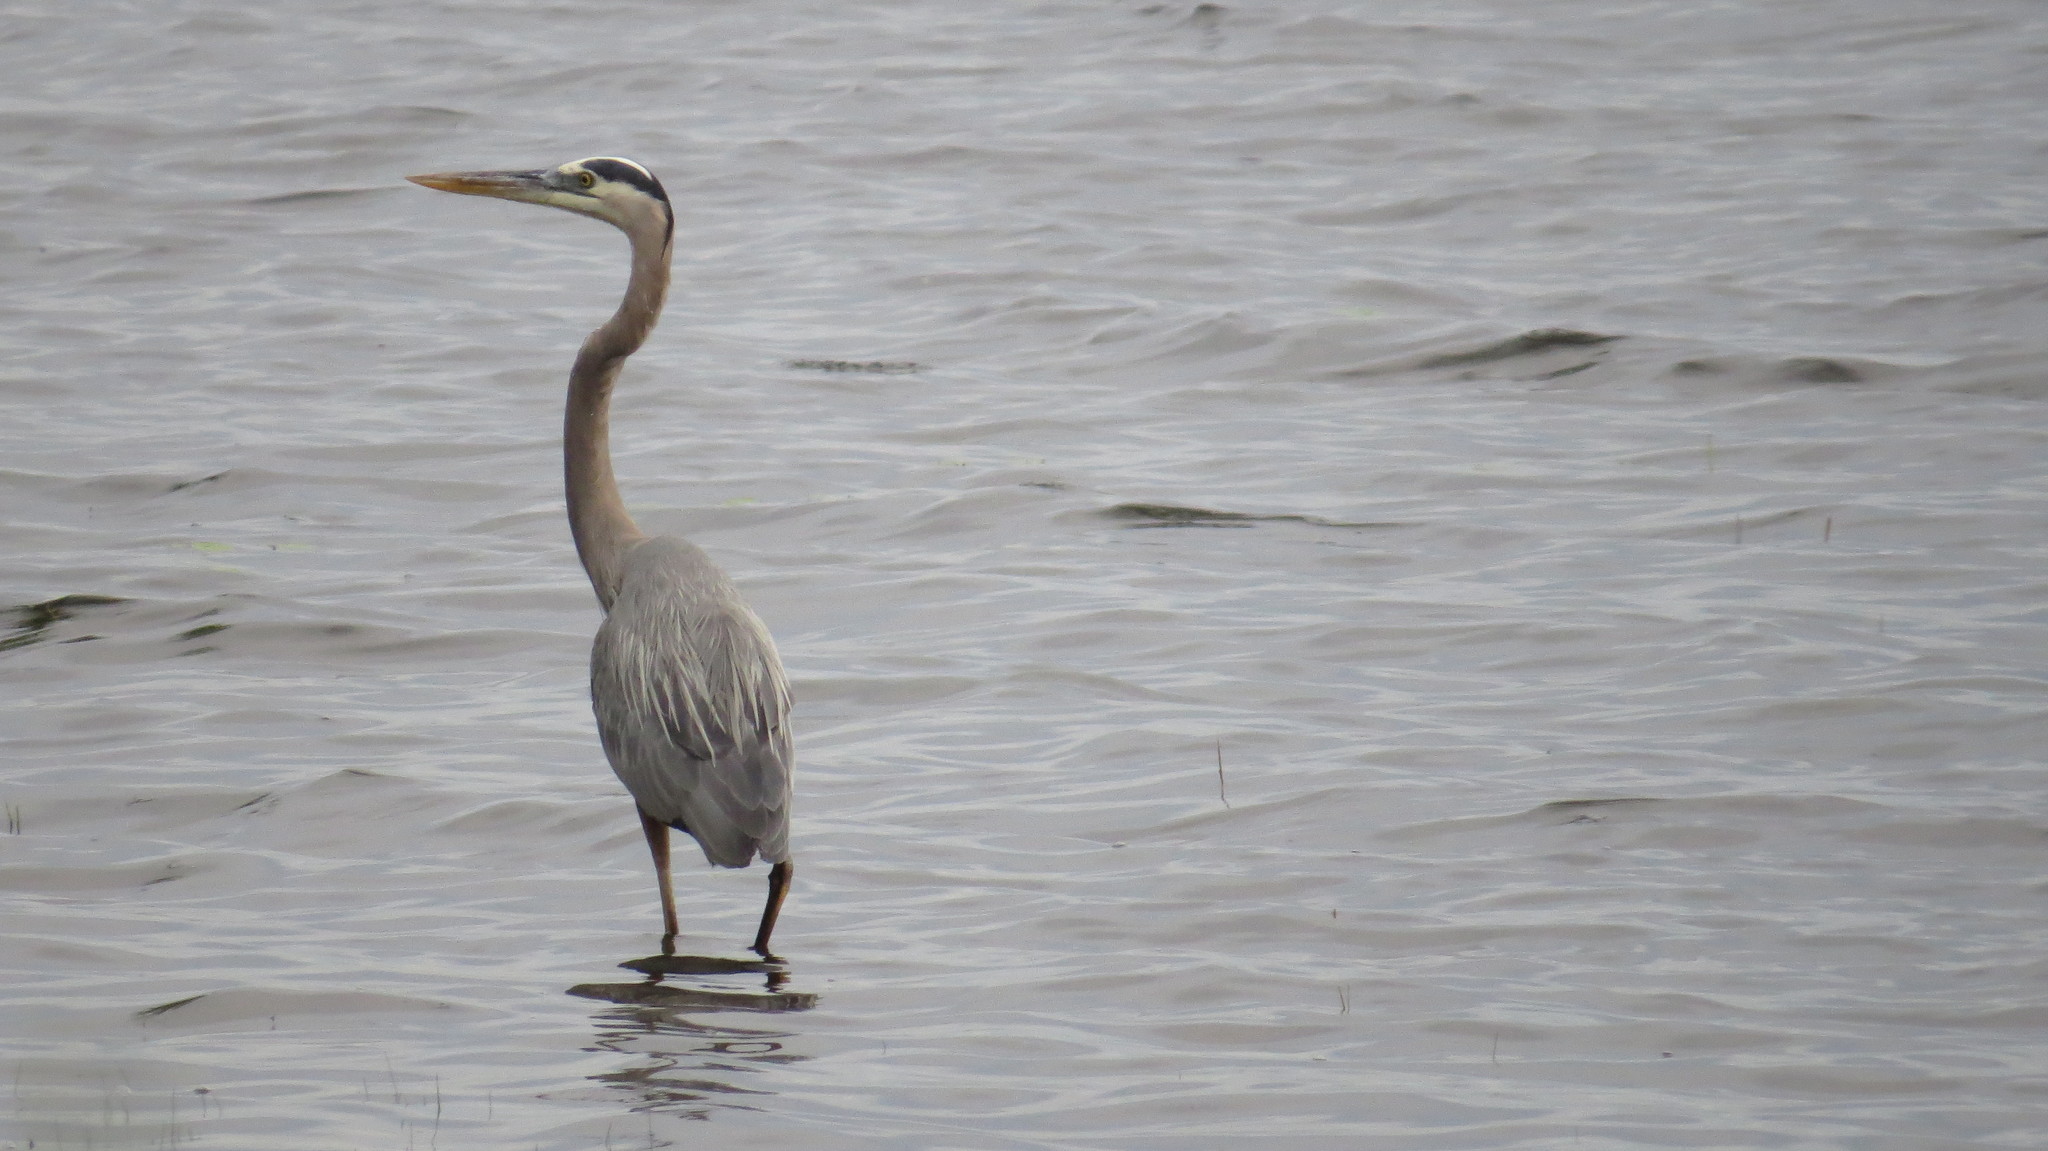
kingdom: Animalia
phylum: Chordata
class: Aves
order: Pelecaniformes
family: Ardeidae
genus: Ardea
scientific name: Ardea herodias
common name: Great blue heron
